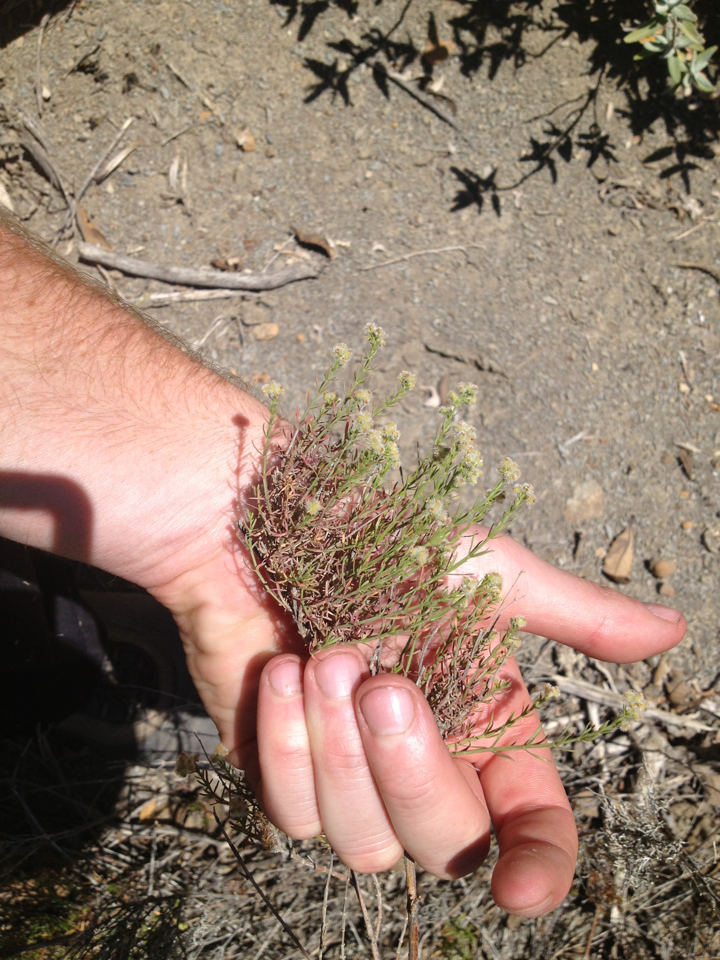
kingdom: Plantae
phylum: Tracheophyta
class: Magnoliopsida
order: Gentianales
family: Rubiaceae
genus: Galium
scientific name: Galium angustifolium
